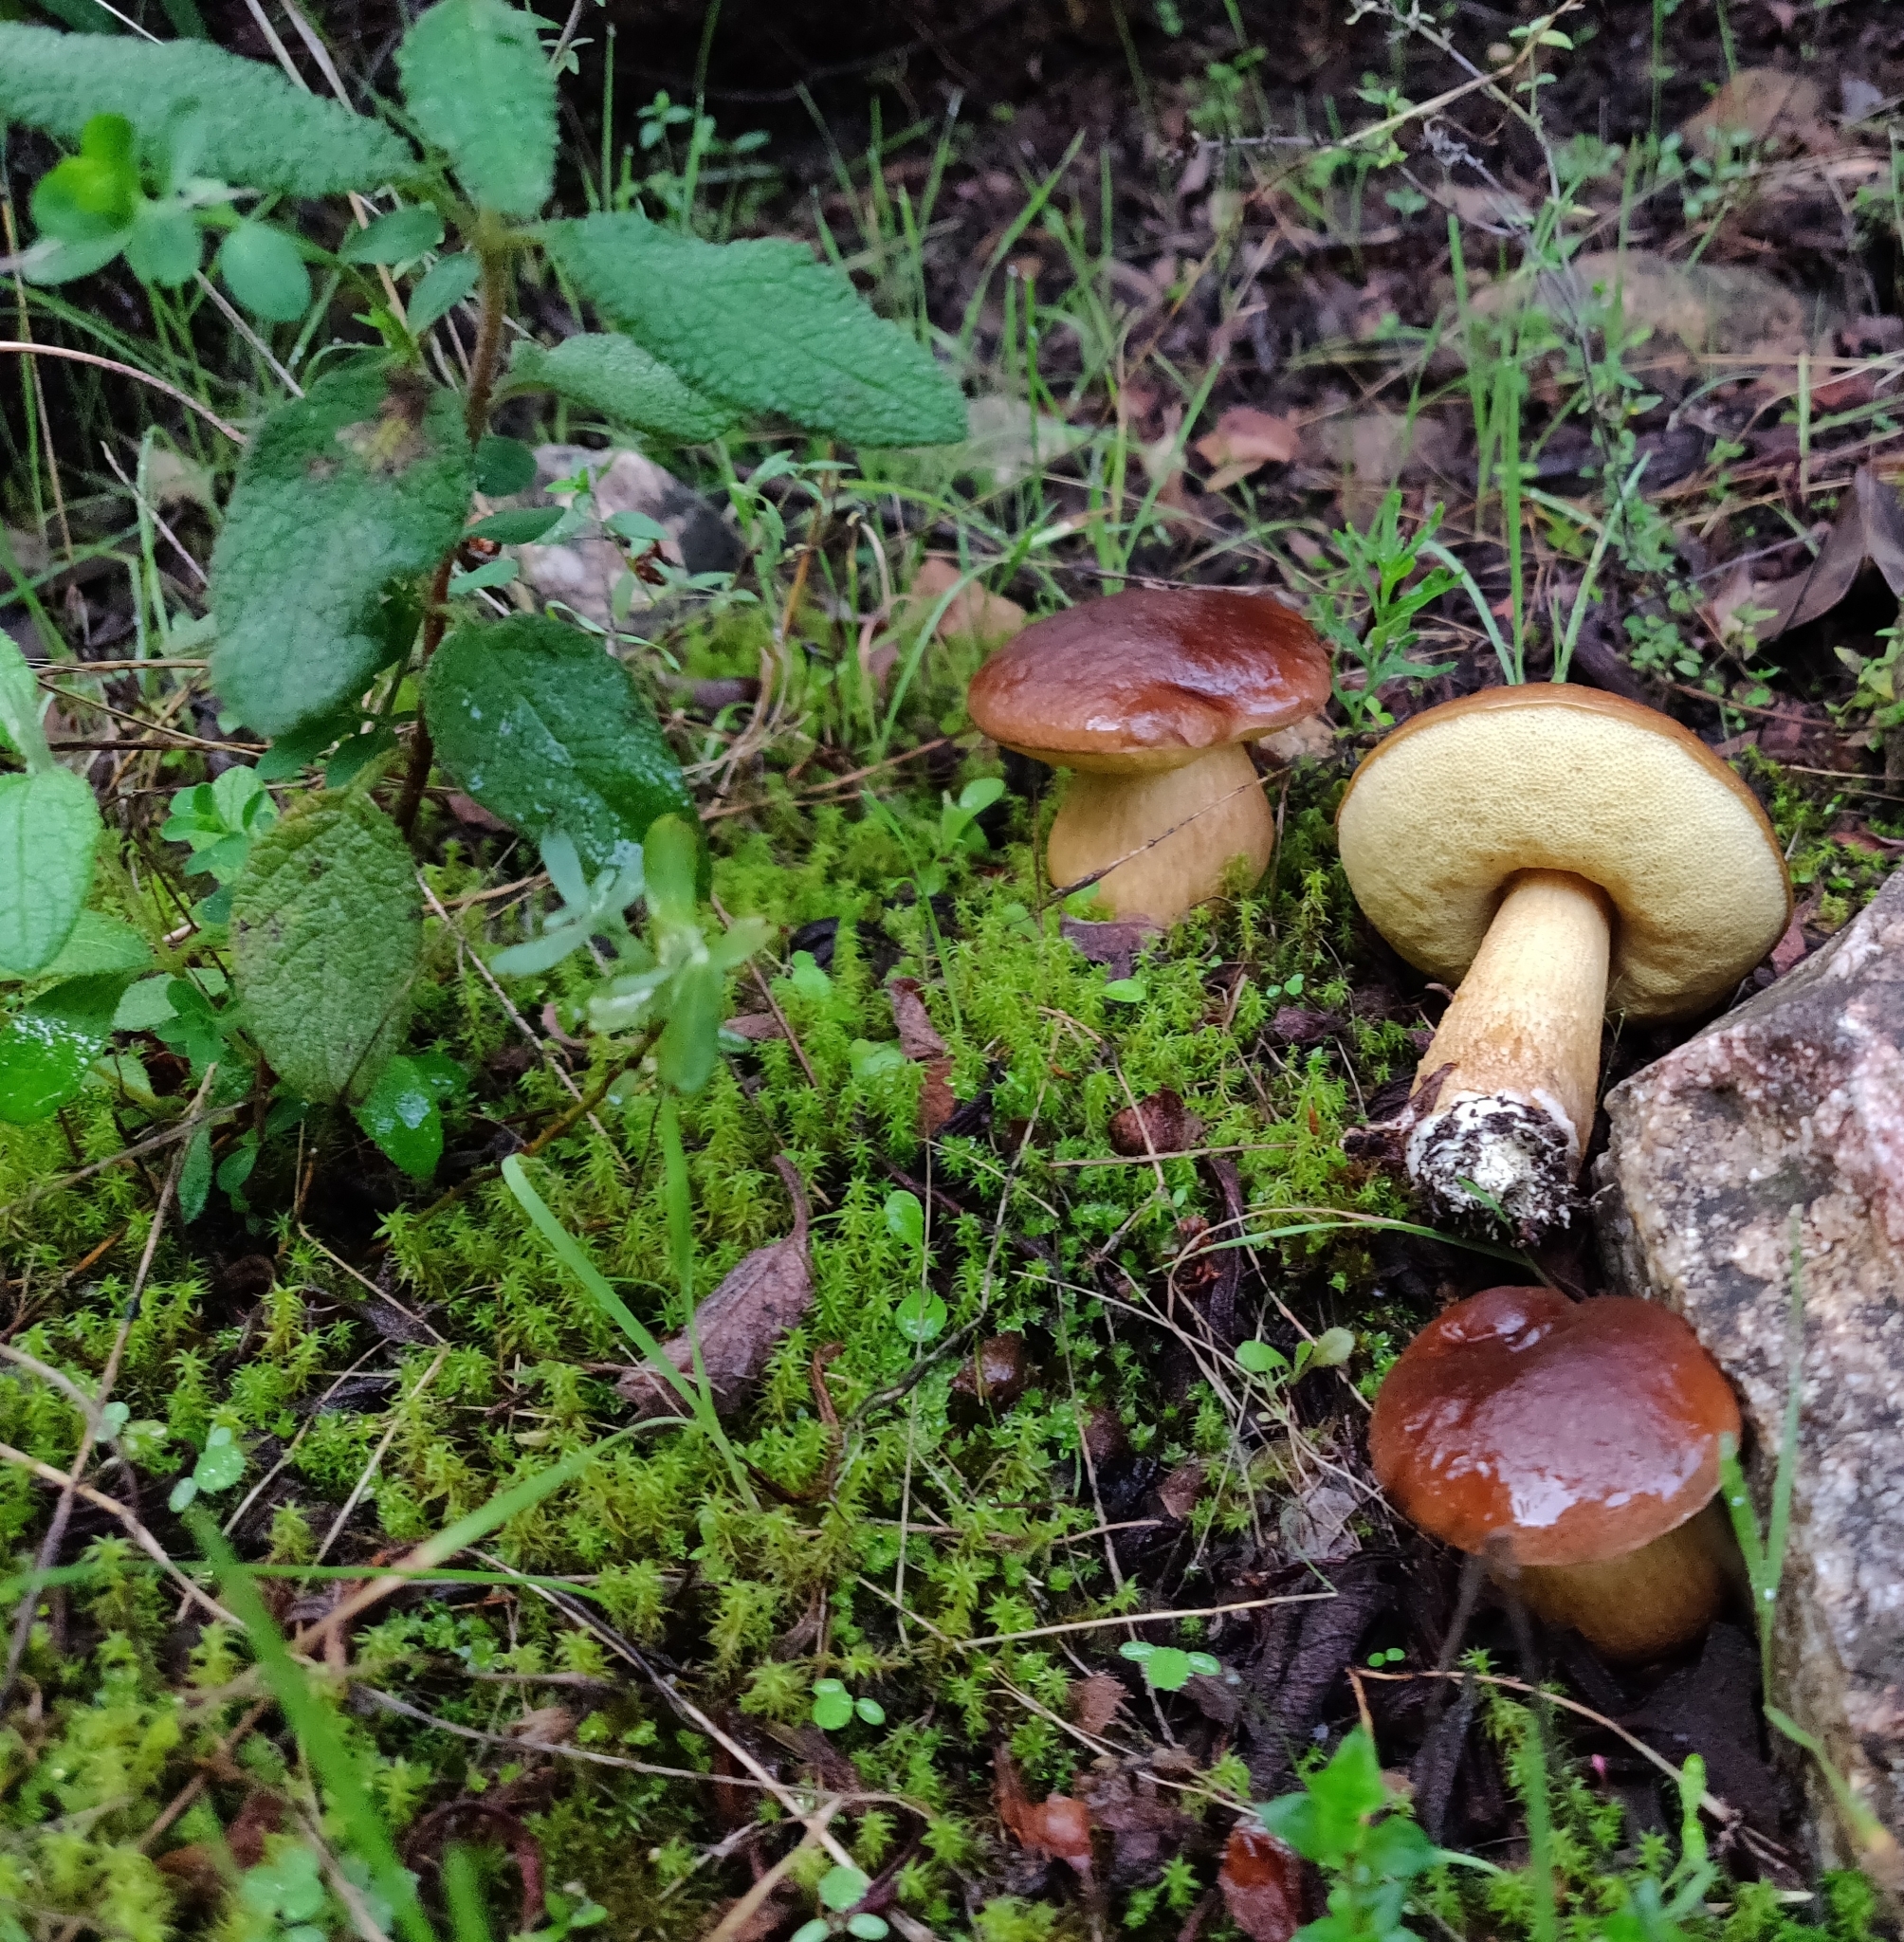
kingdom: Fungi
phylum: Basidiomycota
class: Agaricomycetes
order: Boletales
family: Boletaceae
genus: Leccinellum
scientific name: Leccinellum corsicum
